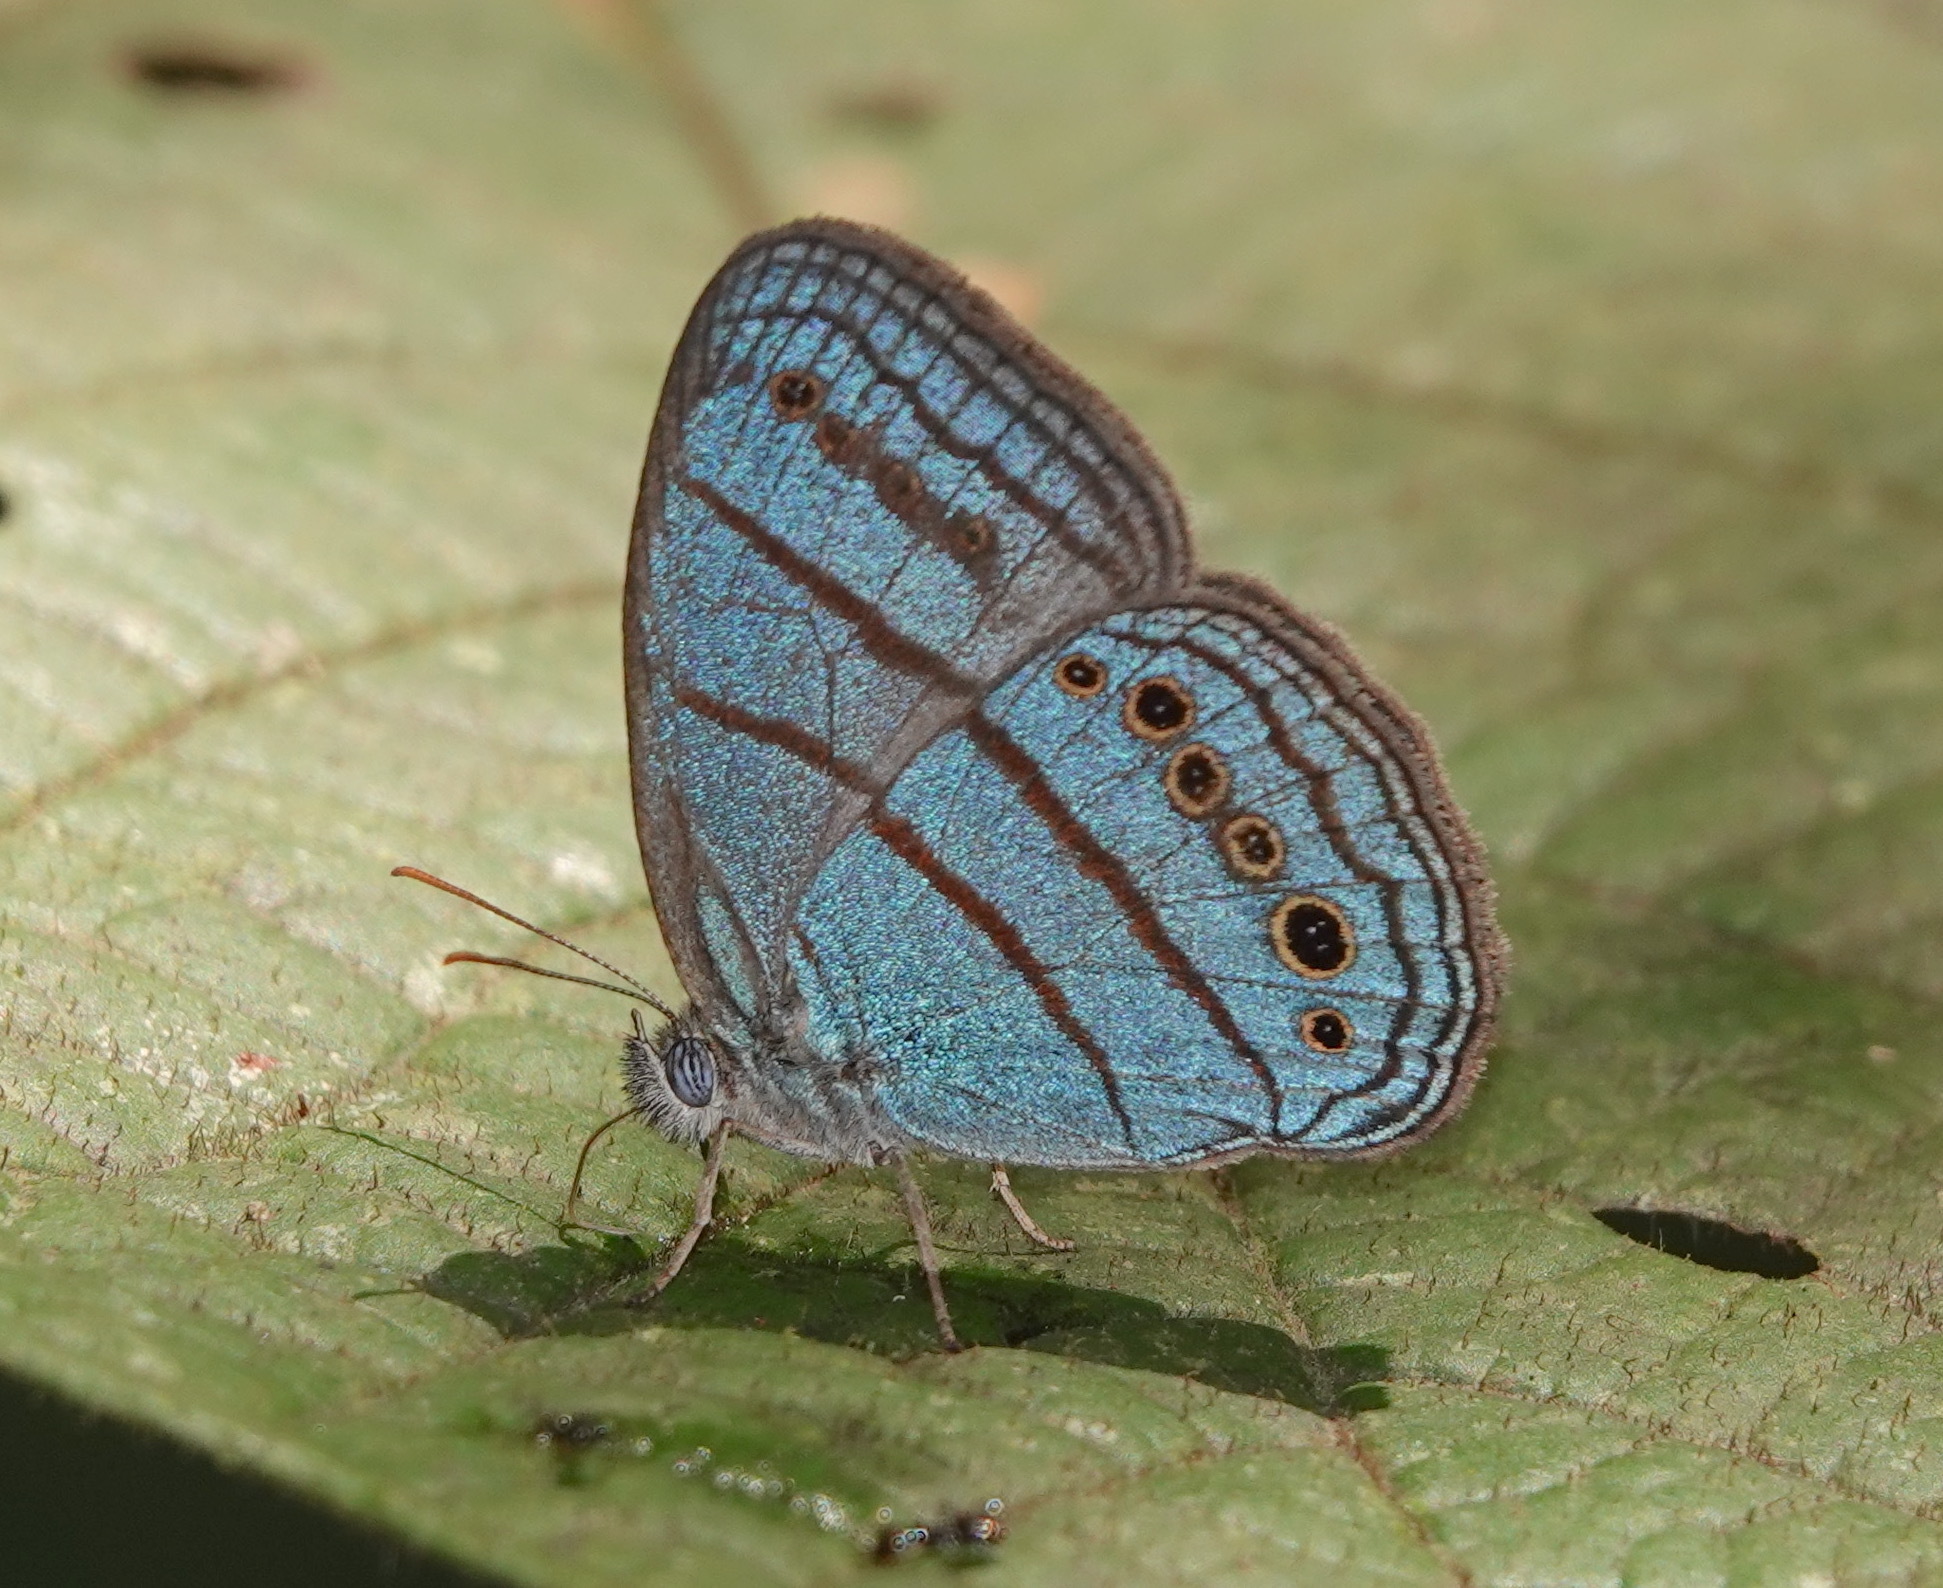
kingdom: Animalia
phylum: Arthropoda
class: Insecta
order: Lepidoptera
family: Nymphalidae
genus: Caeruleuptychia
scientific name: Caeruleuptychia twalela
